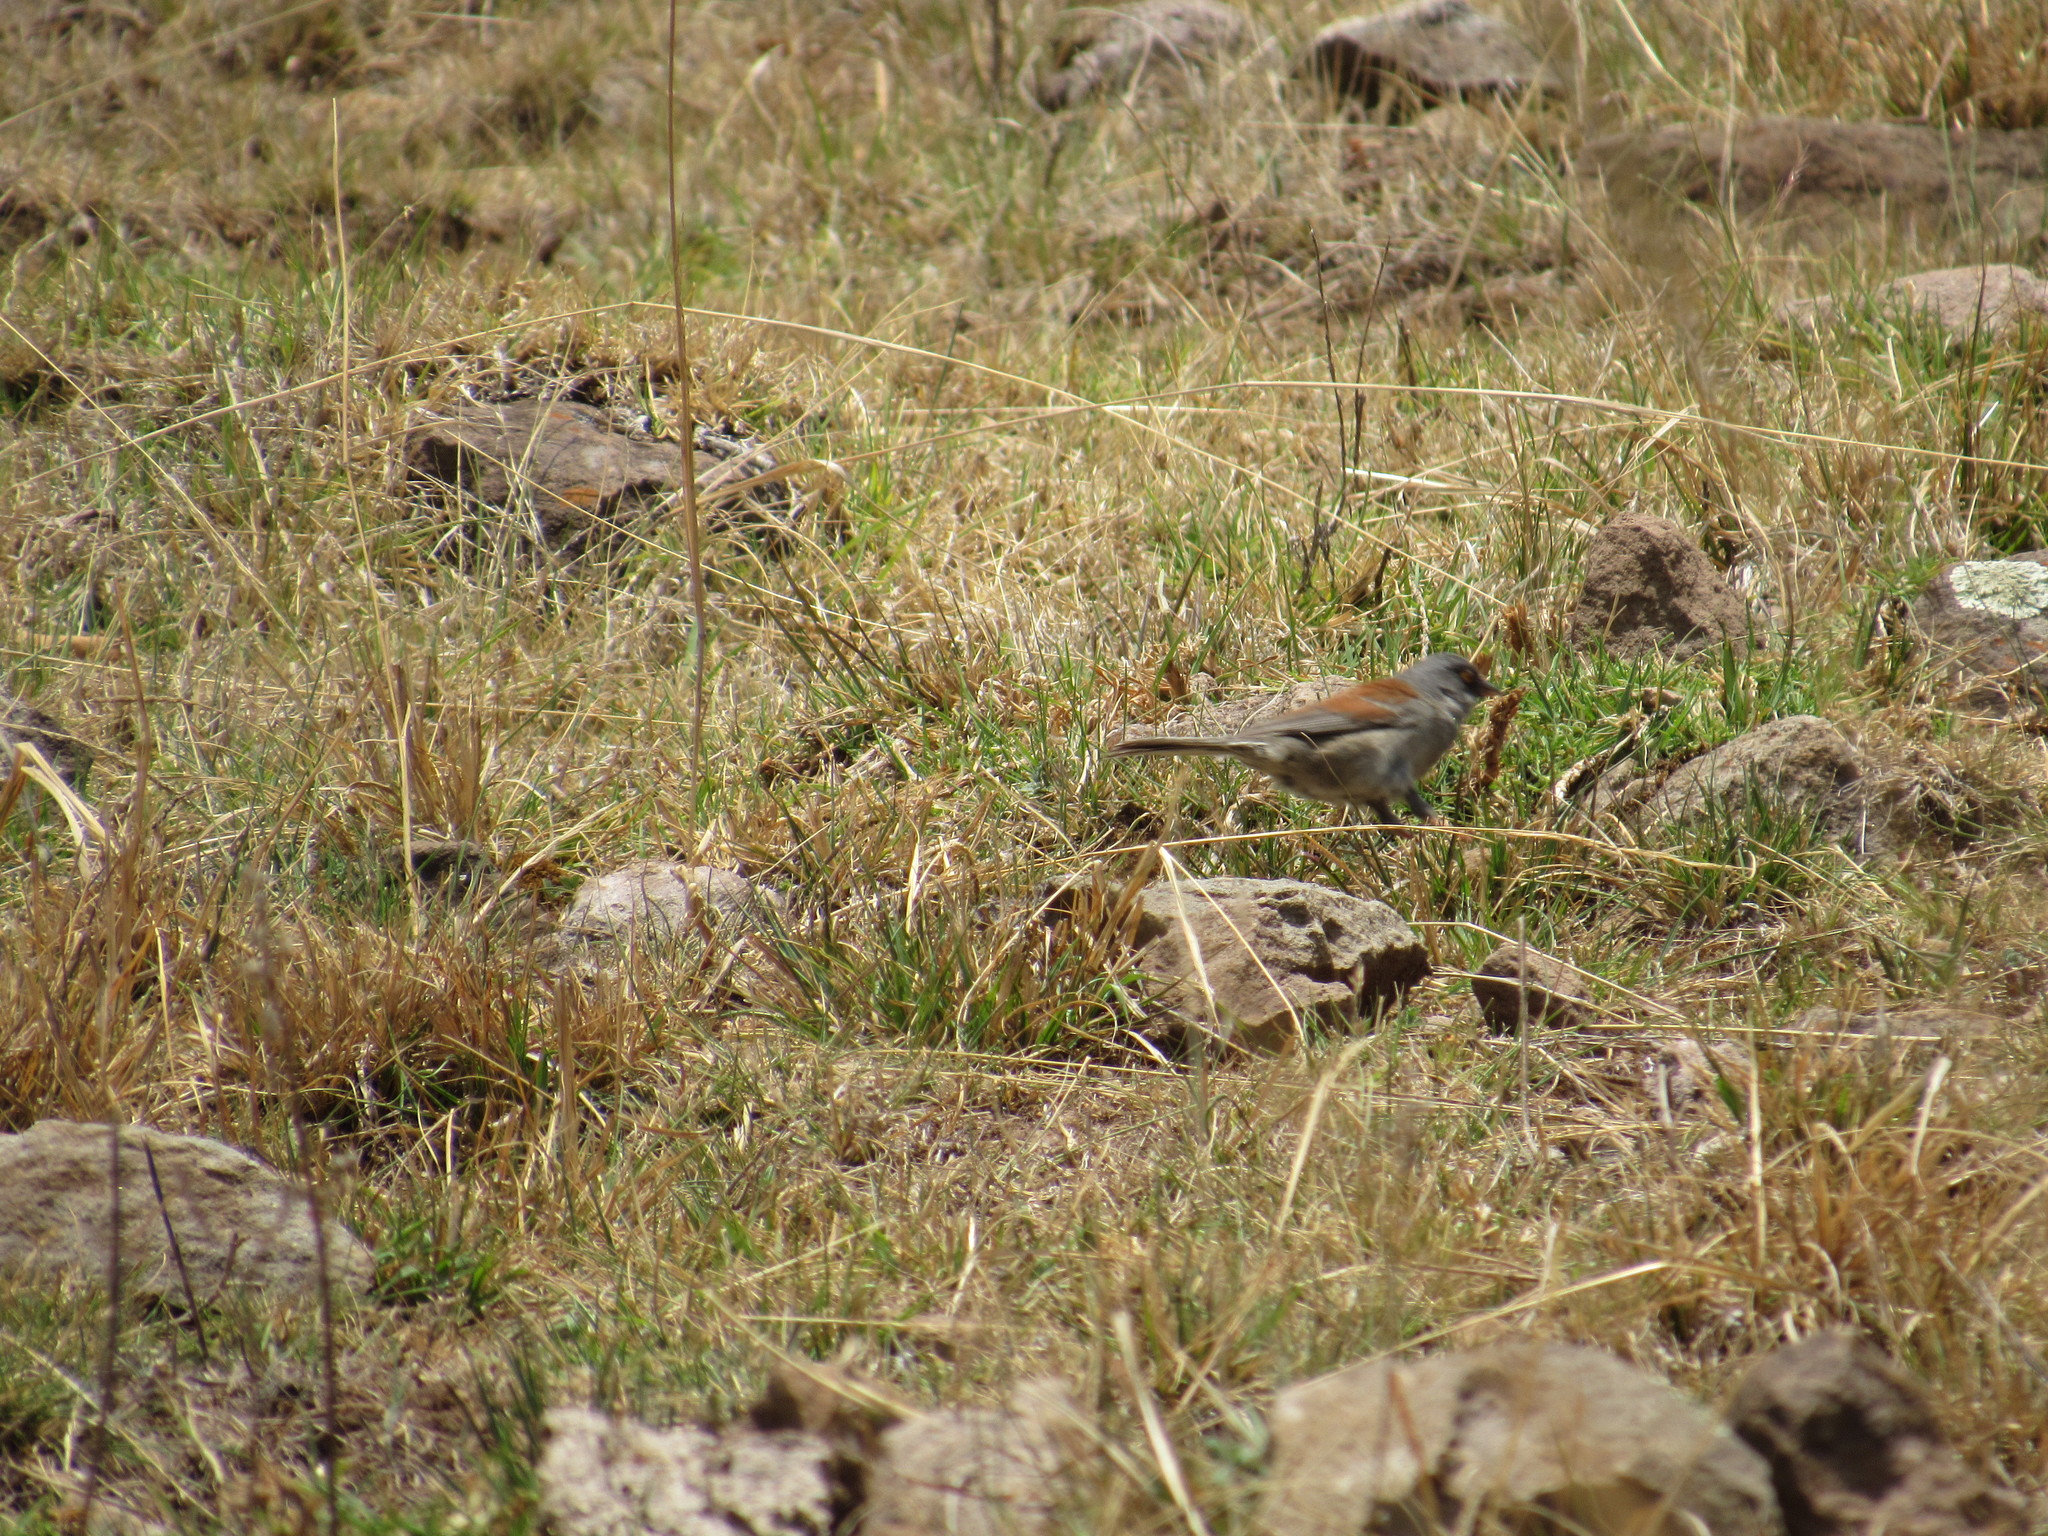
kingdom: Animalia
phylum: Chordata
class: Aves
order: Passeriformes
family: Passerellidae
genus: Junco
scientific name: Junco phaeonotus
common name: Yellow-eyed junco
